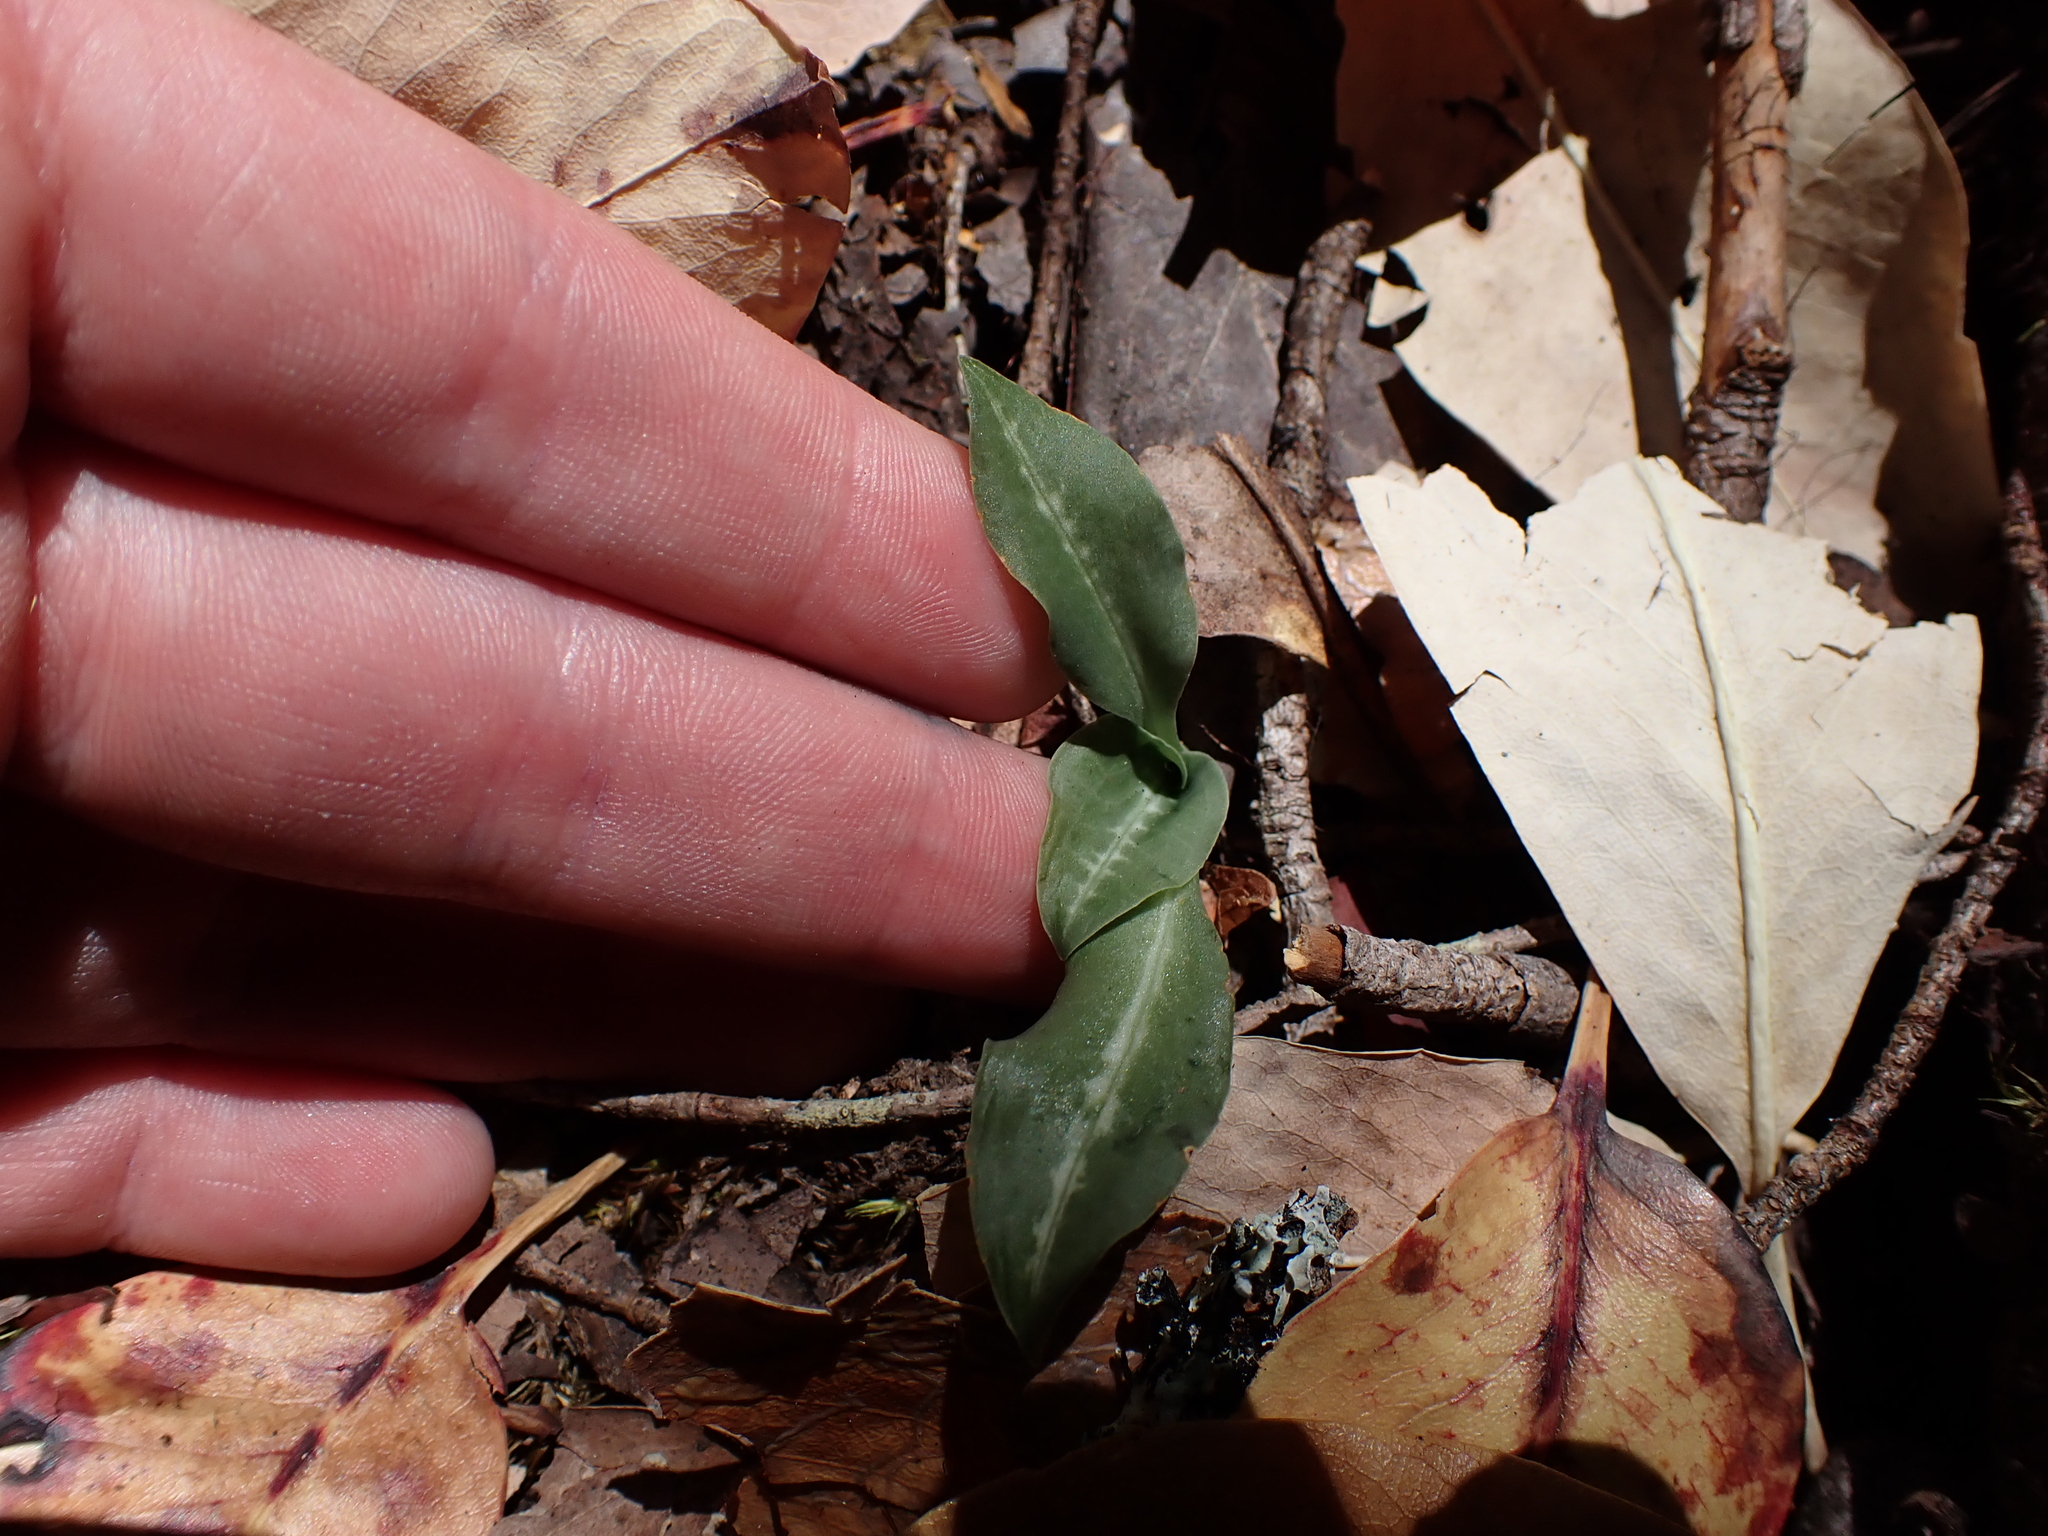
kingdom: Plantae
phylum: Tracheophyta
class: Liliopsida
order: Asparagales
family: Orchidaceae
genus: Goodyera
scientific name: Goodyera oblongifolia
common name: Giant rattlesnake-plantain
